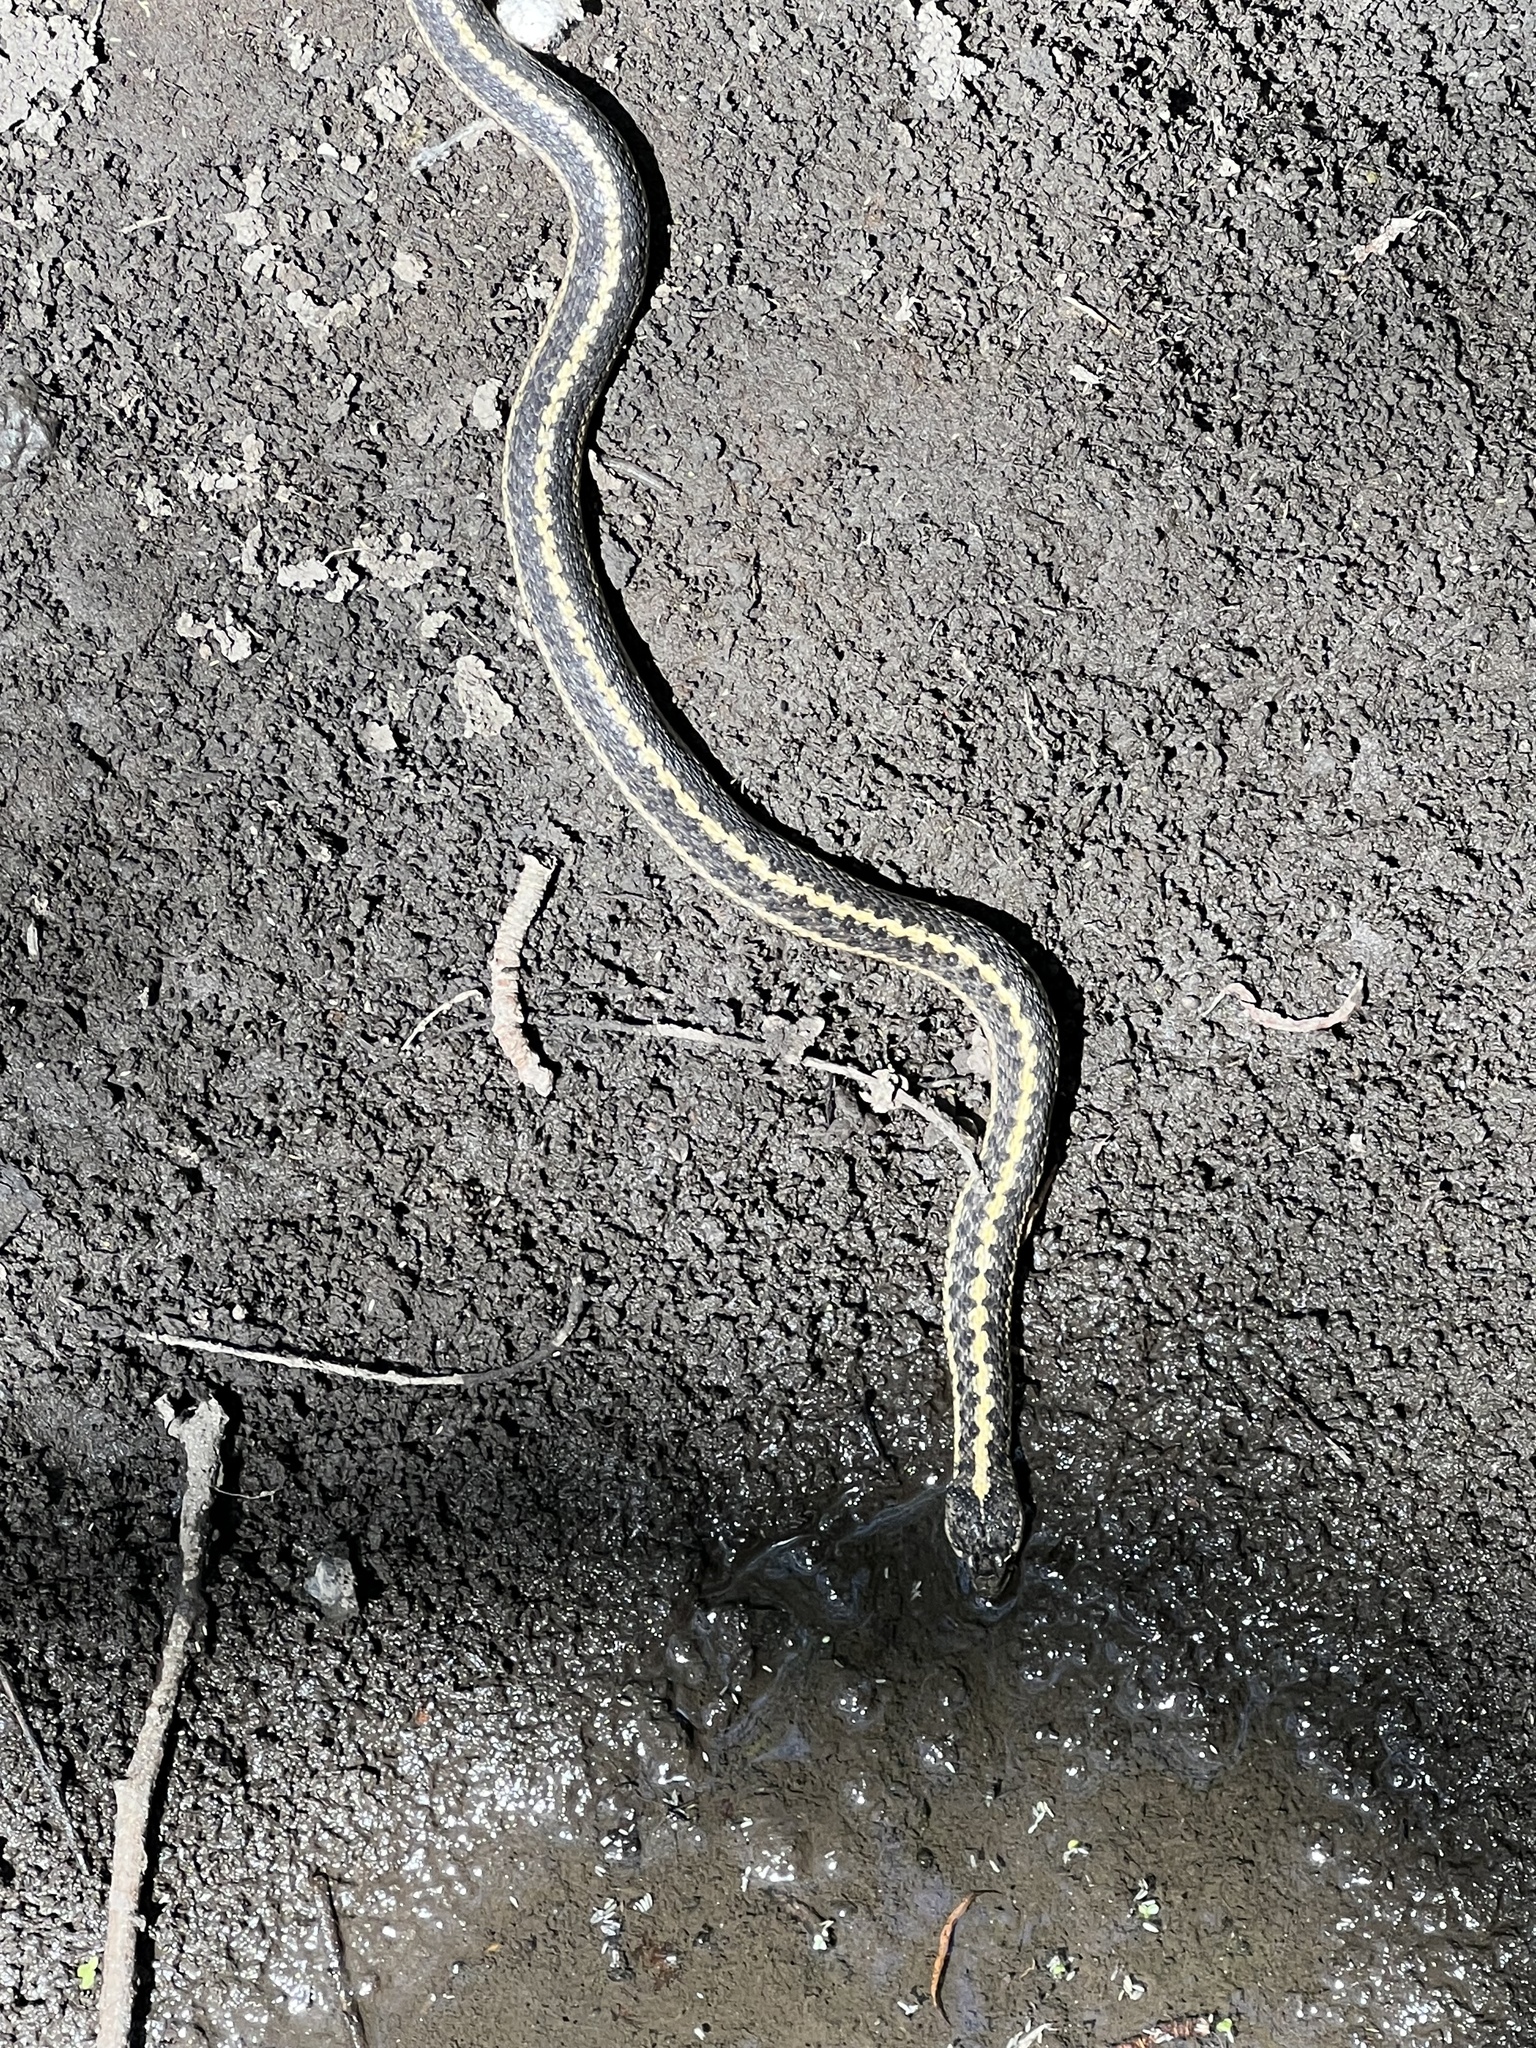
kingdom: Animalia
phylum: Chordata
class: Squamata
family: Colubridae
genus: Thamnophis
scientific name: Thamnophis elegans
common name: Western terrestrial garter snake
